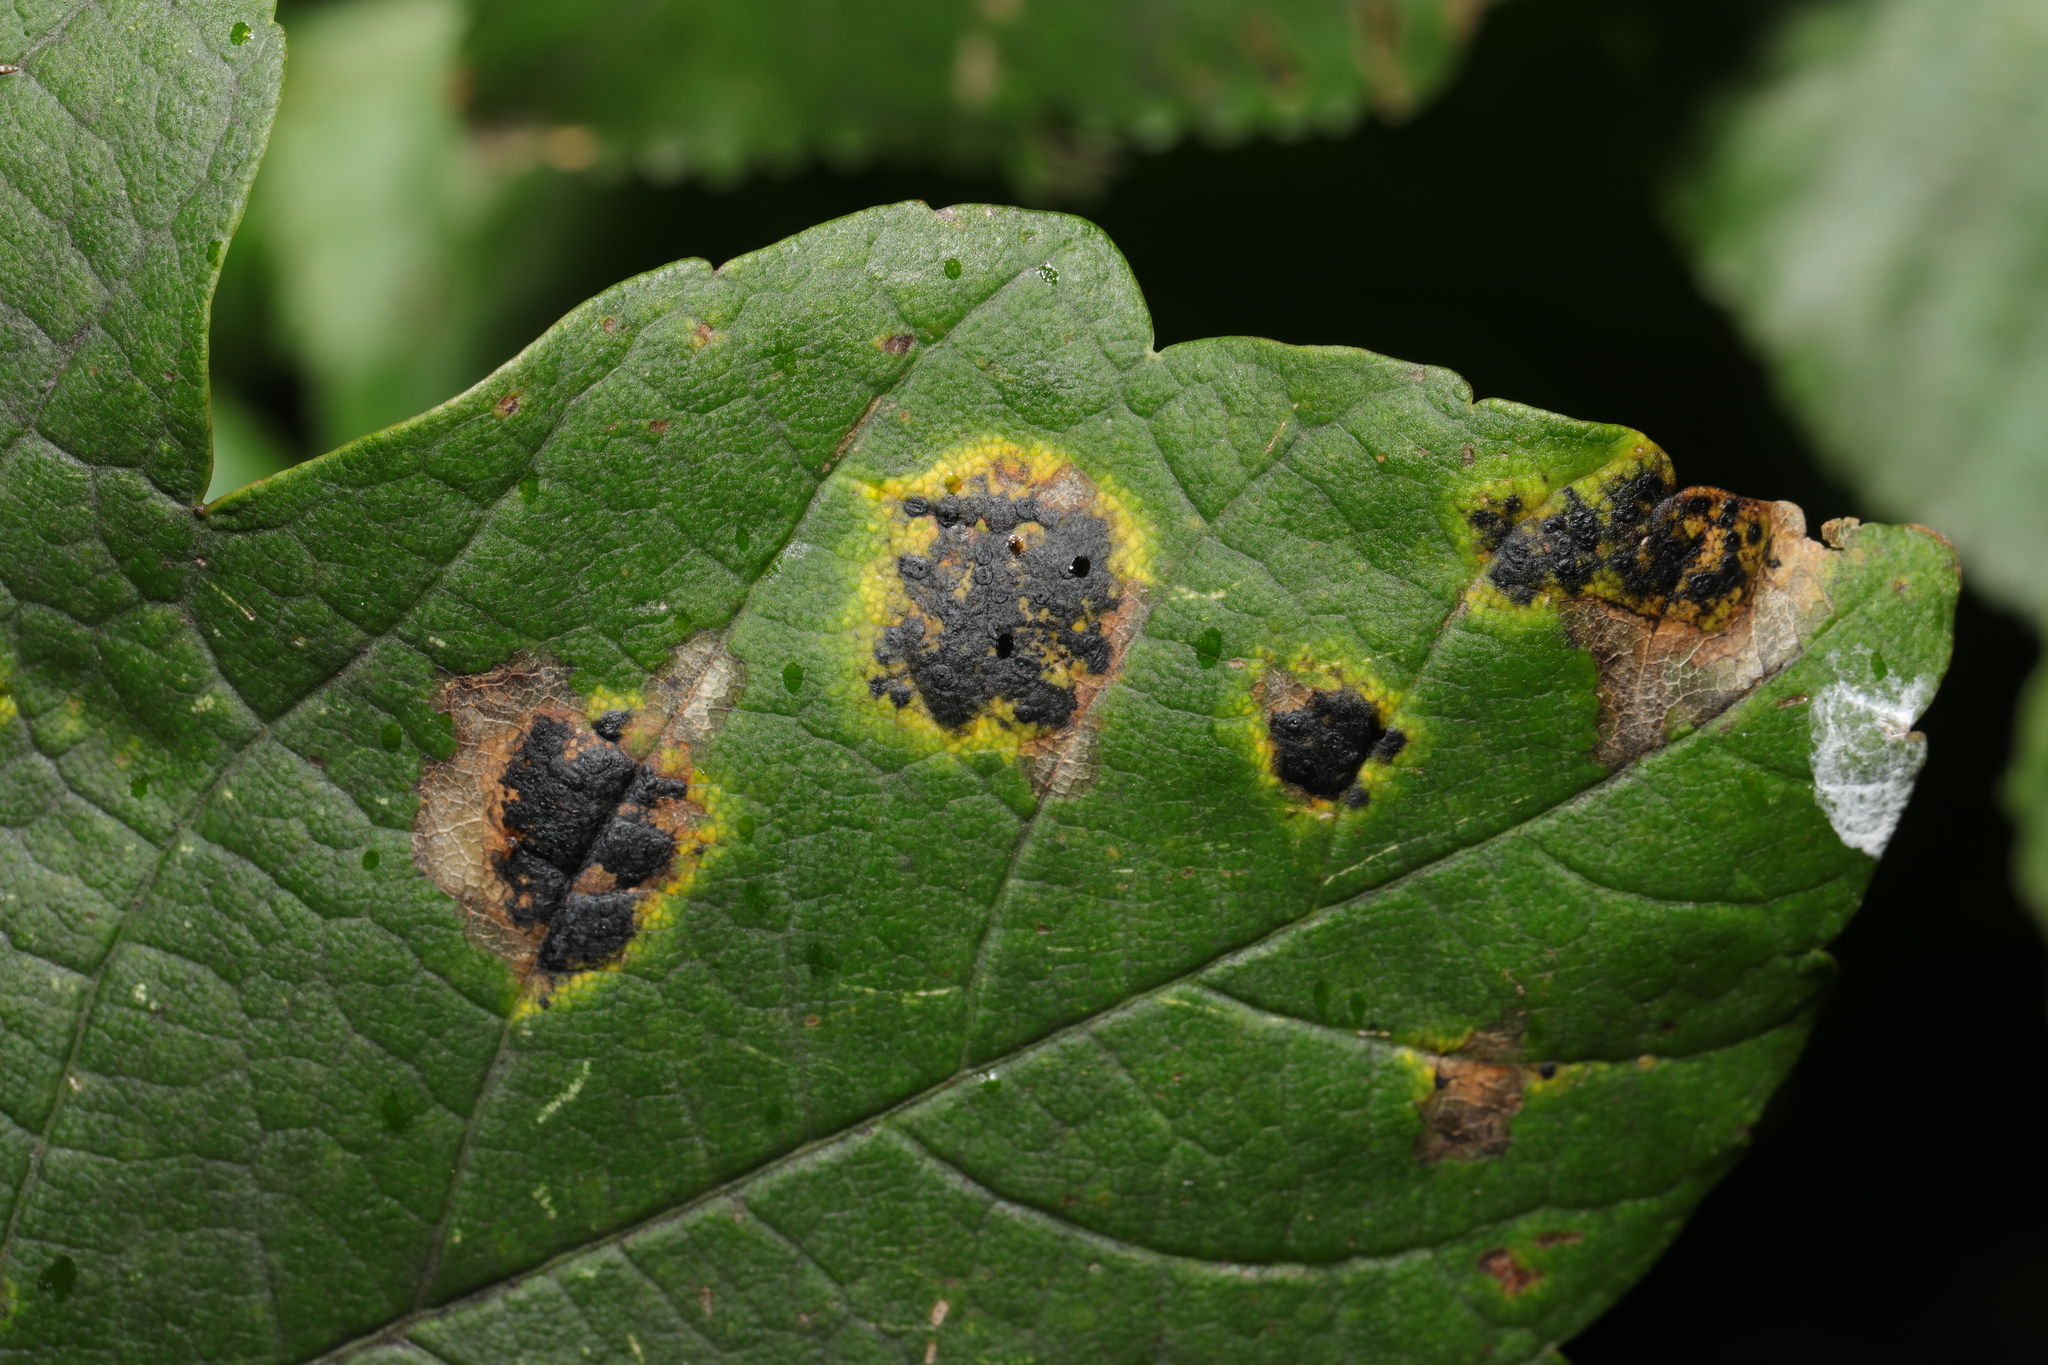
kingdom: Fungi
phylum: Ascomycota
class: Leotiomycetes
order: Rhytismatales
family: Rhytismataceae
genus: Rhytisma
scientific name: Rhytisma acerinum
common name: European tar spot
